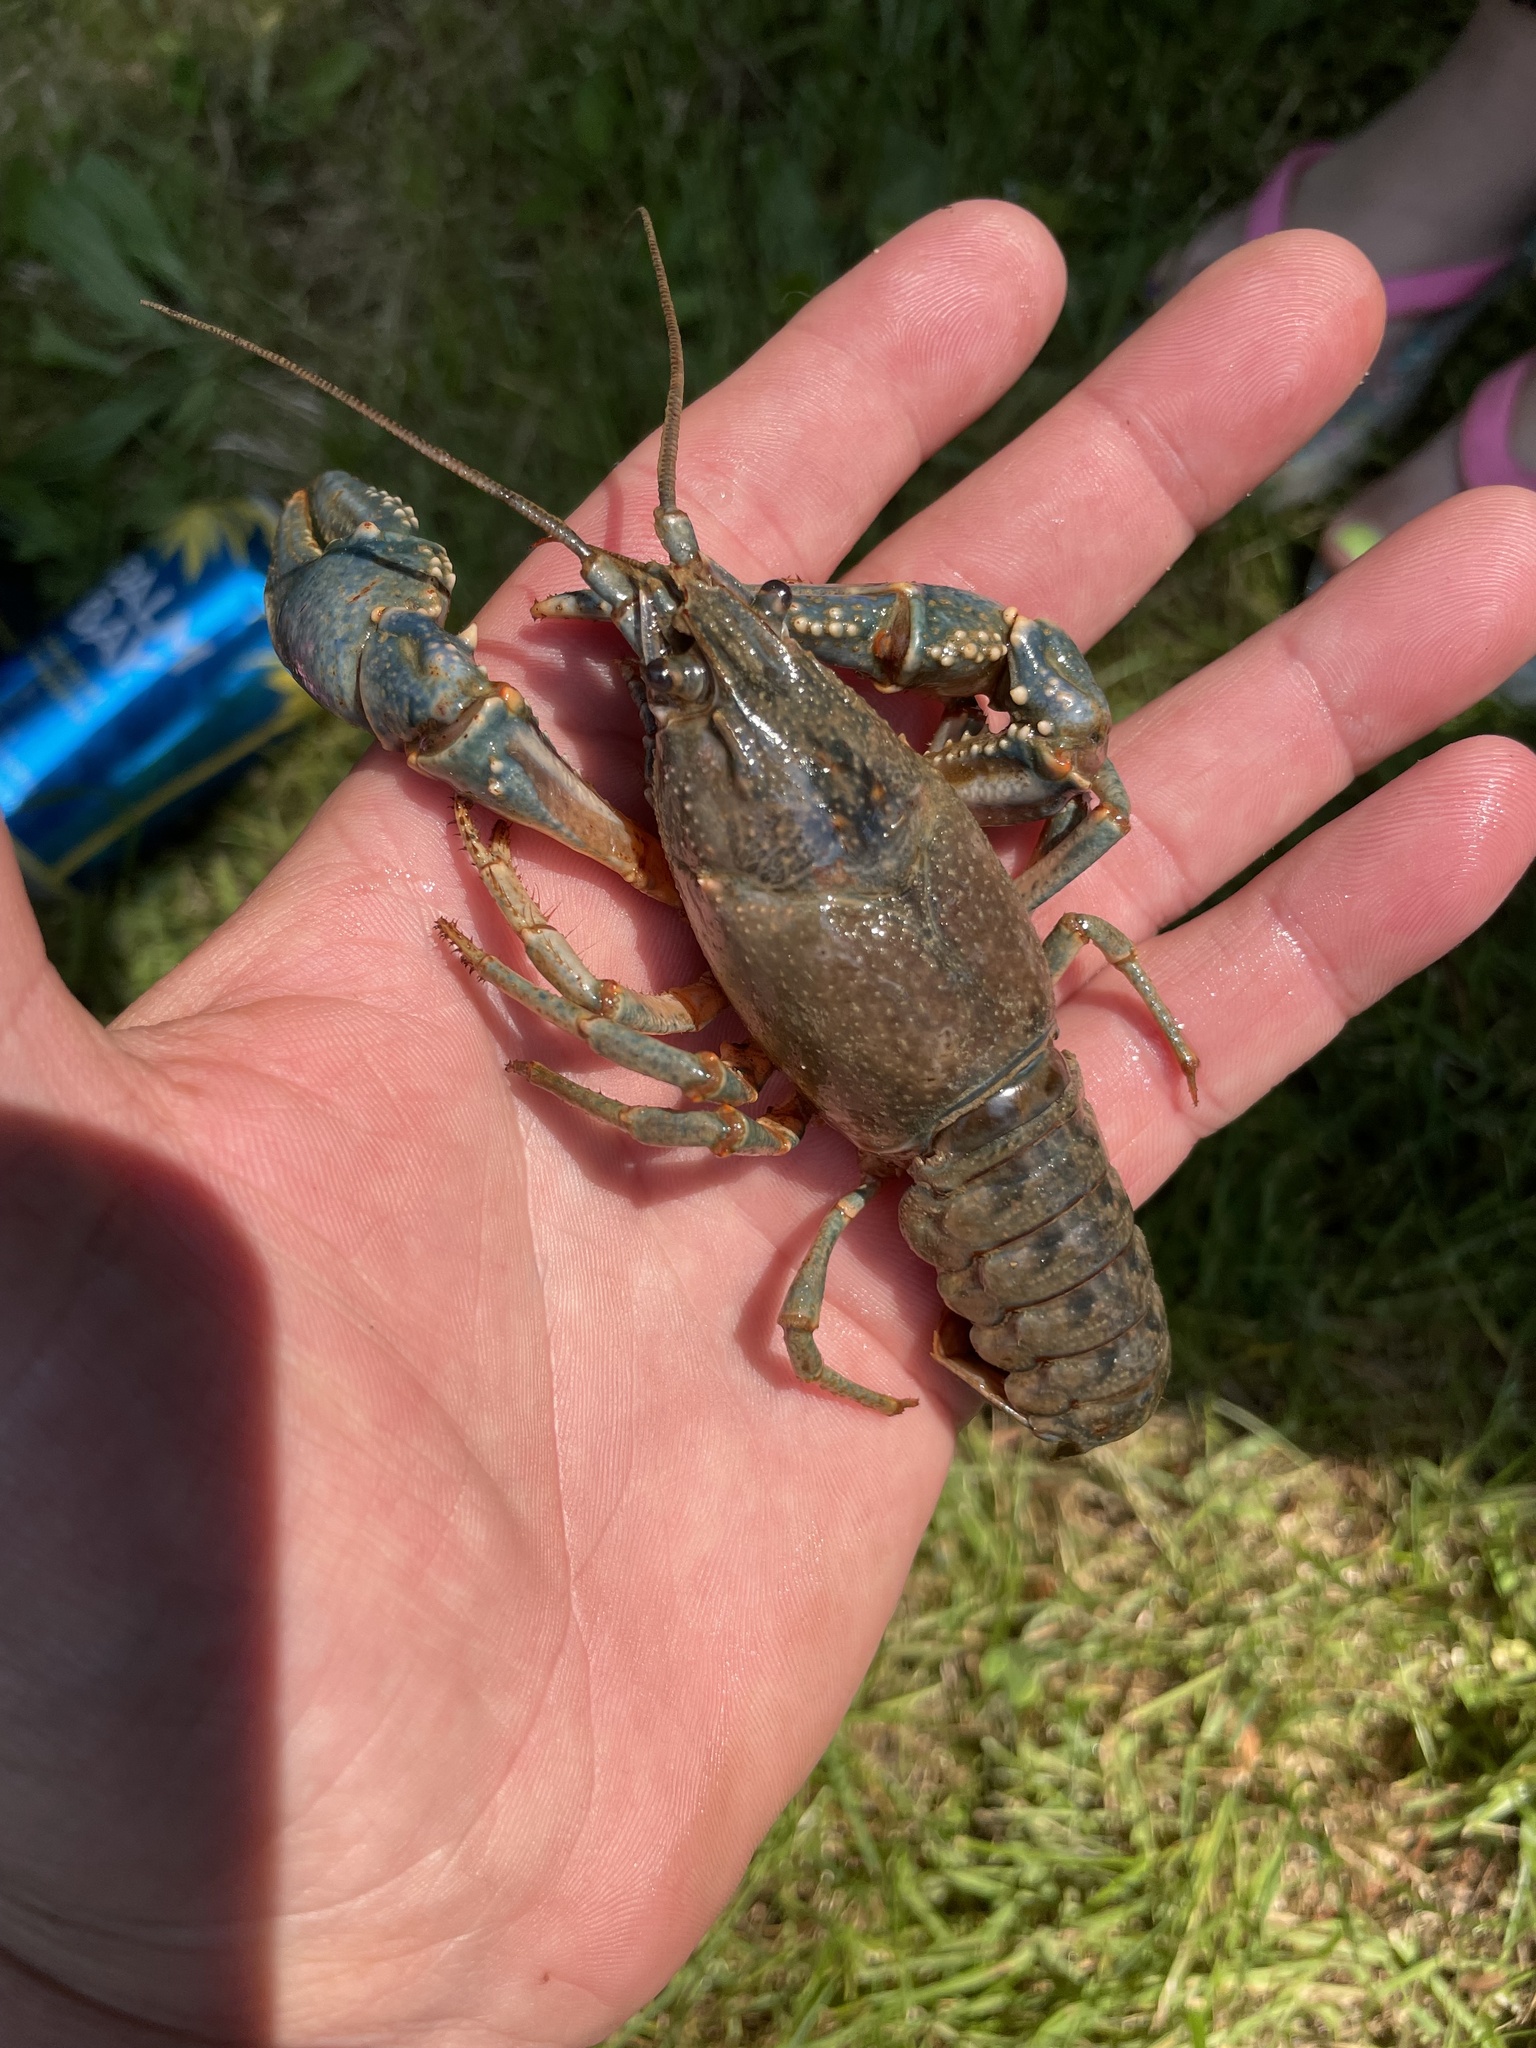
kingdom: Animalia
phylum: Arthropoda
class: Malacostraca
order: Decapoda
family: Cambaridae
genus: Faxonius
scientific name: Faxonius virilis
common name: Virile crayfish
